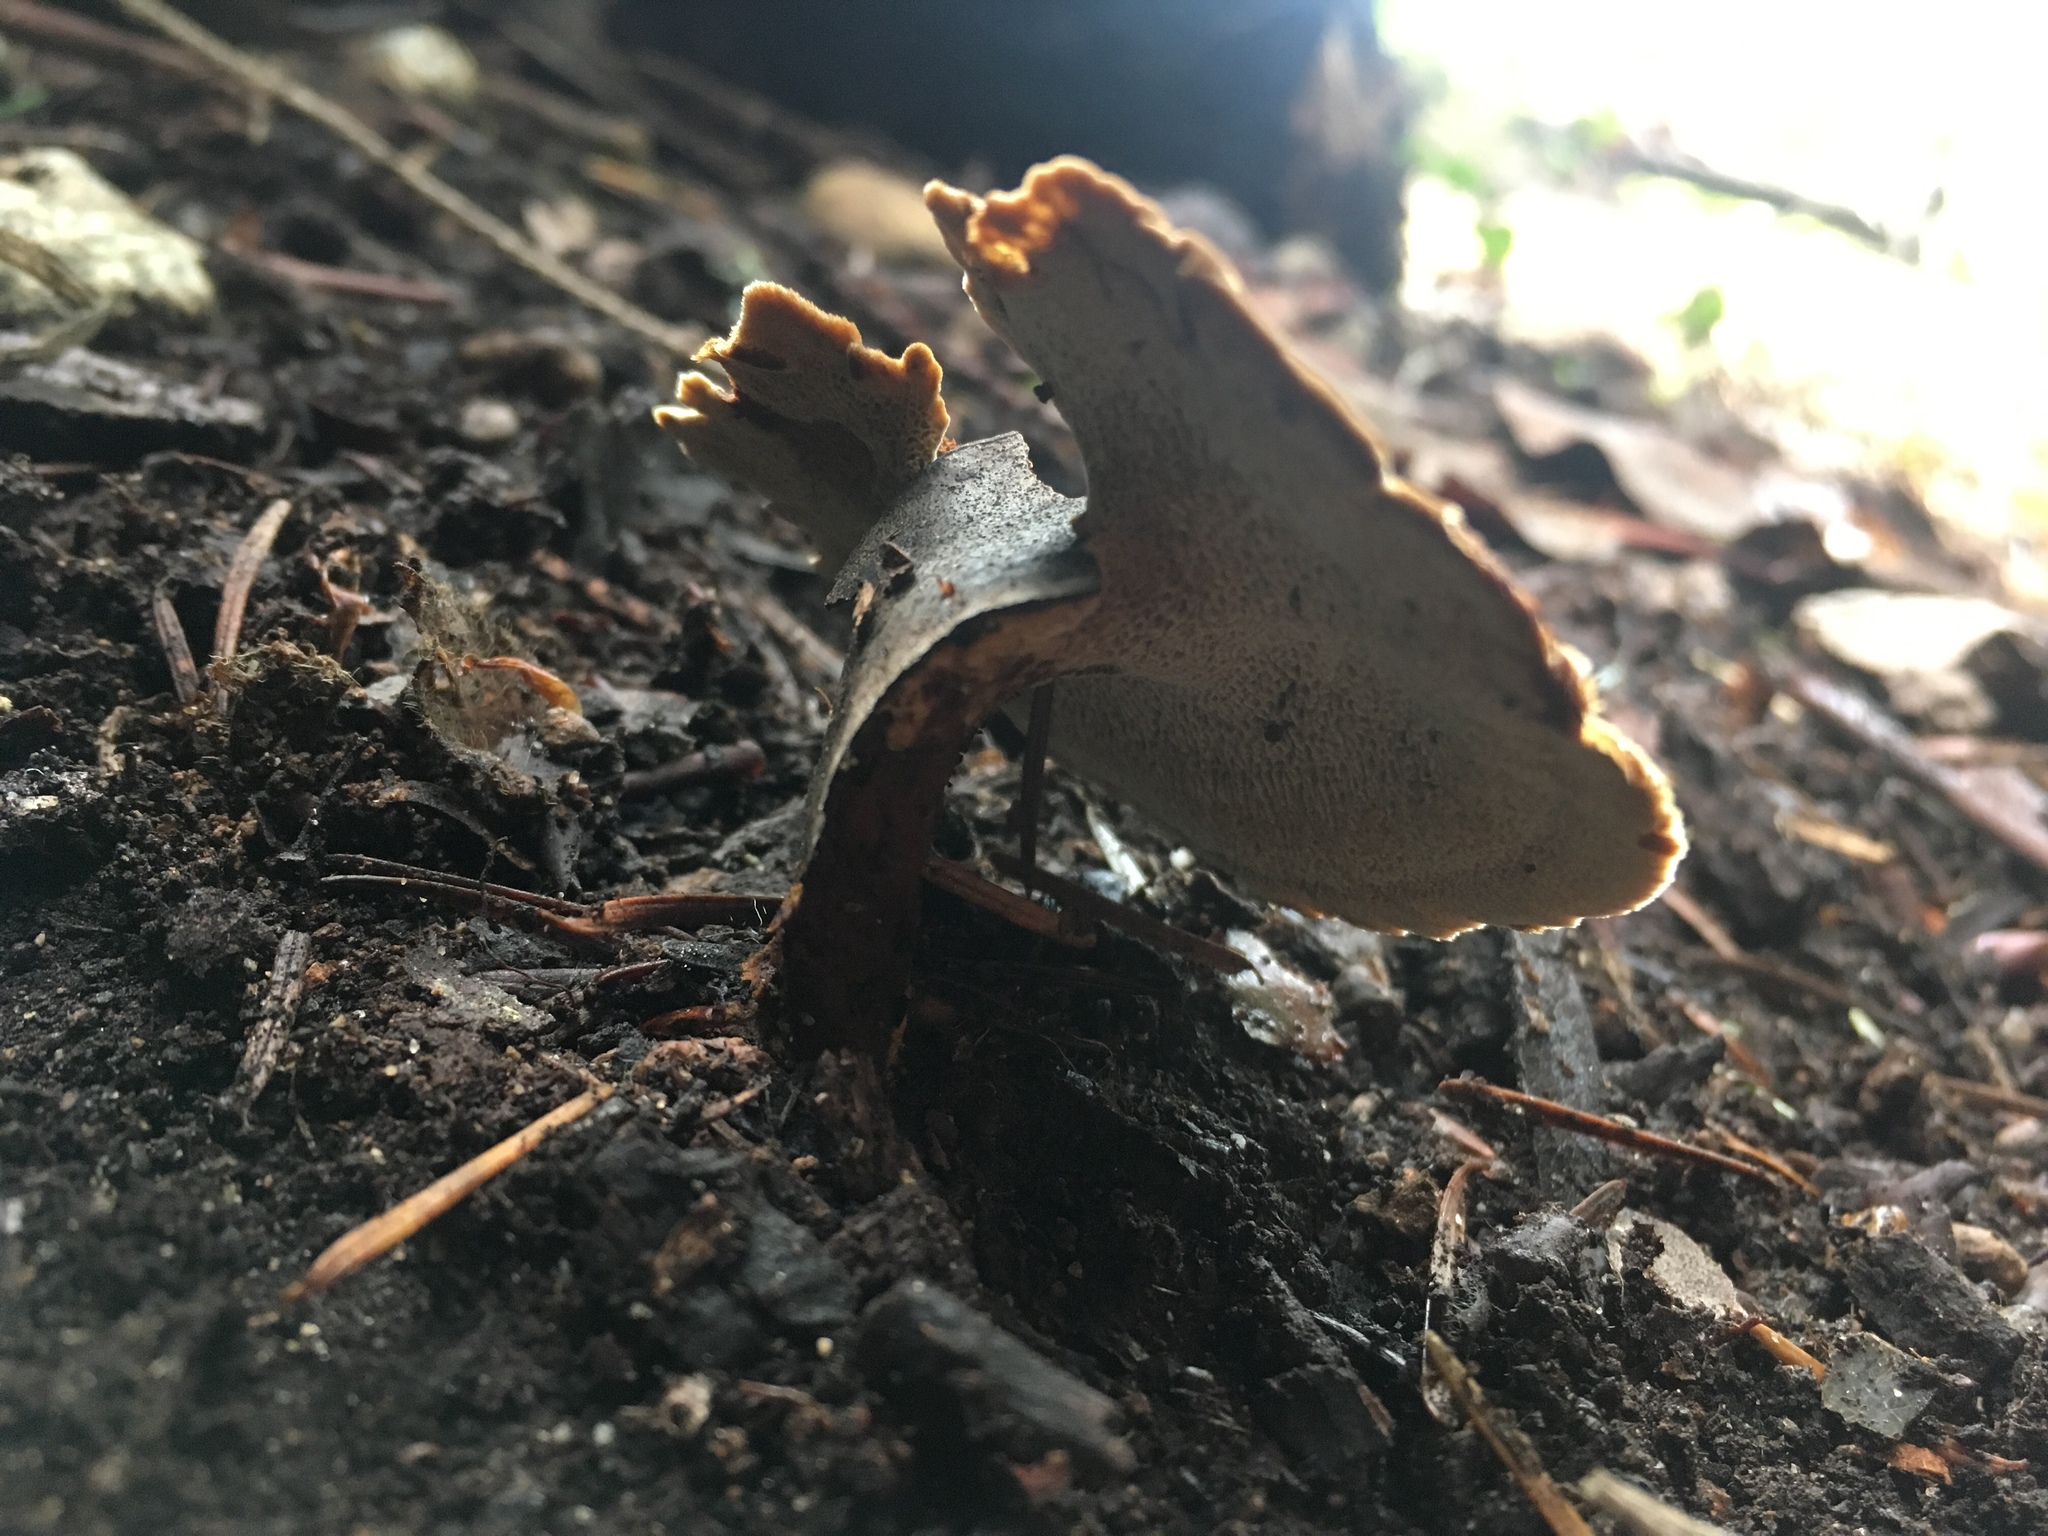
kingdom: Fungi
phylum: Basidiomycota
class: Agaricomycetes
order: Hymenochaetales
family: Hymenochaetaceae
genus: Coltricia
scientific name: Coltricia perennis
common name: Tiger's eye
